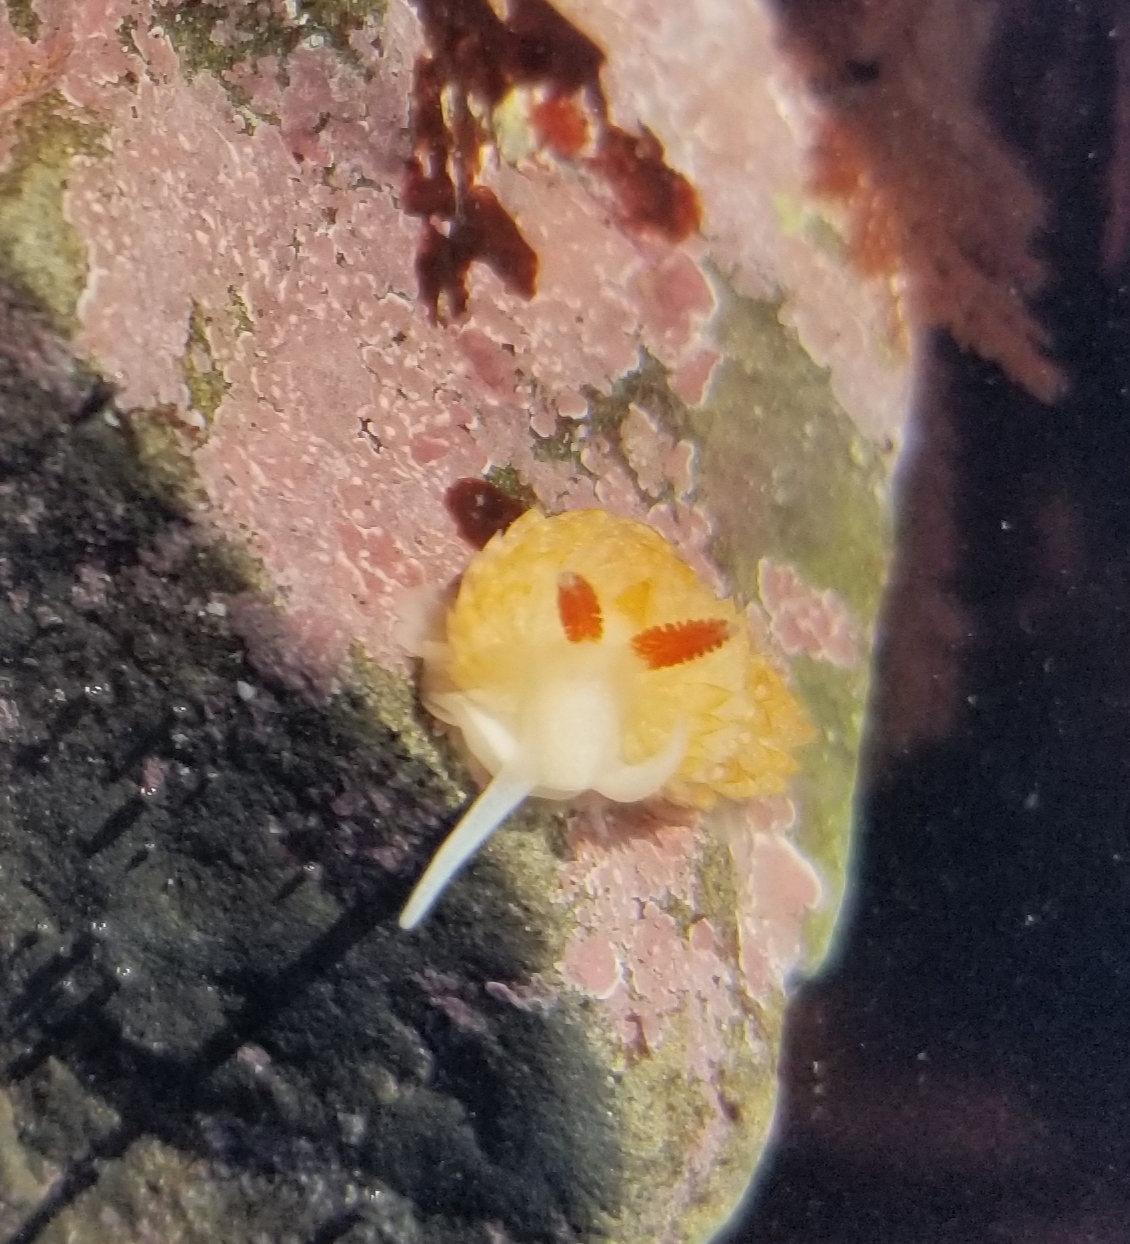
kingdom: Animalia
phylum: Mollusca
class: Gastropoda
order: Nudibranchia
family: Aeolidiidae
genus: Anteaeolidiella
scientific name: Anteaeolidiella oliviae
